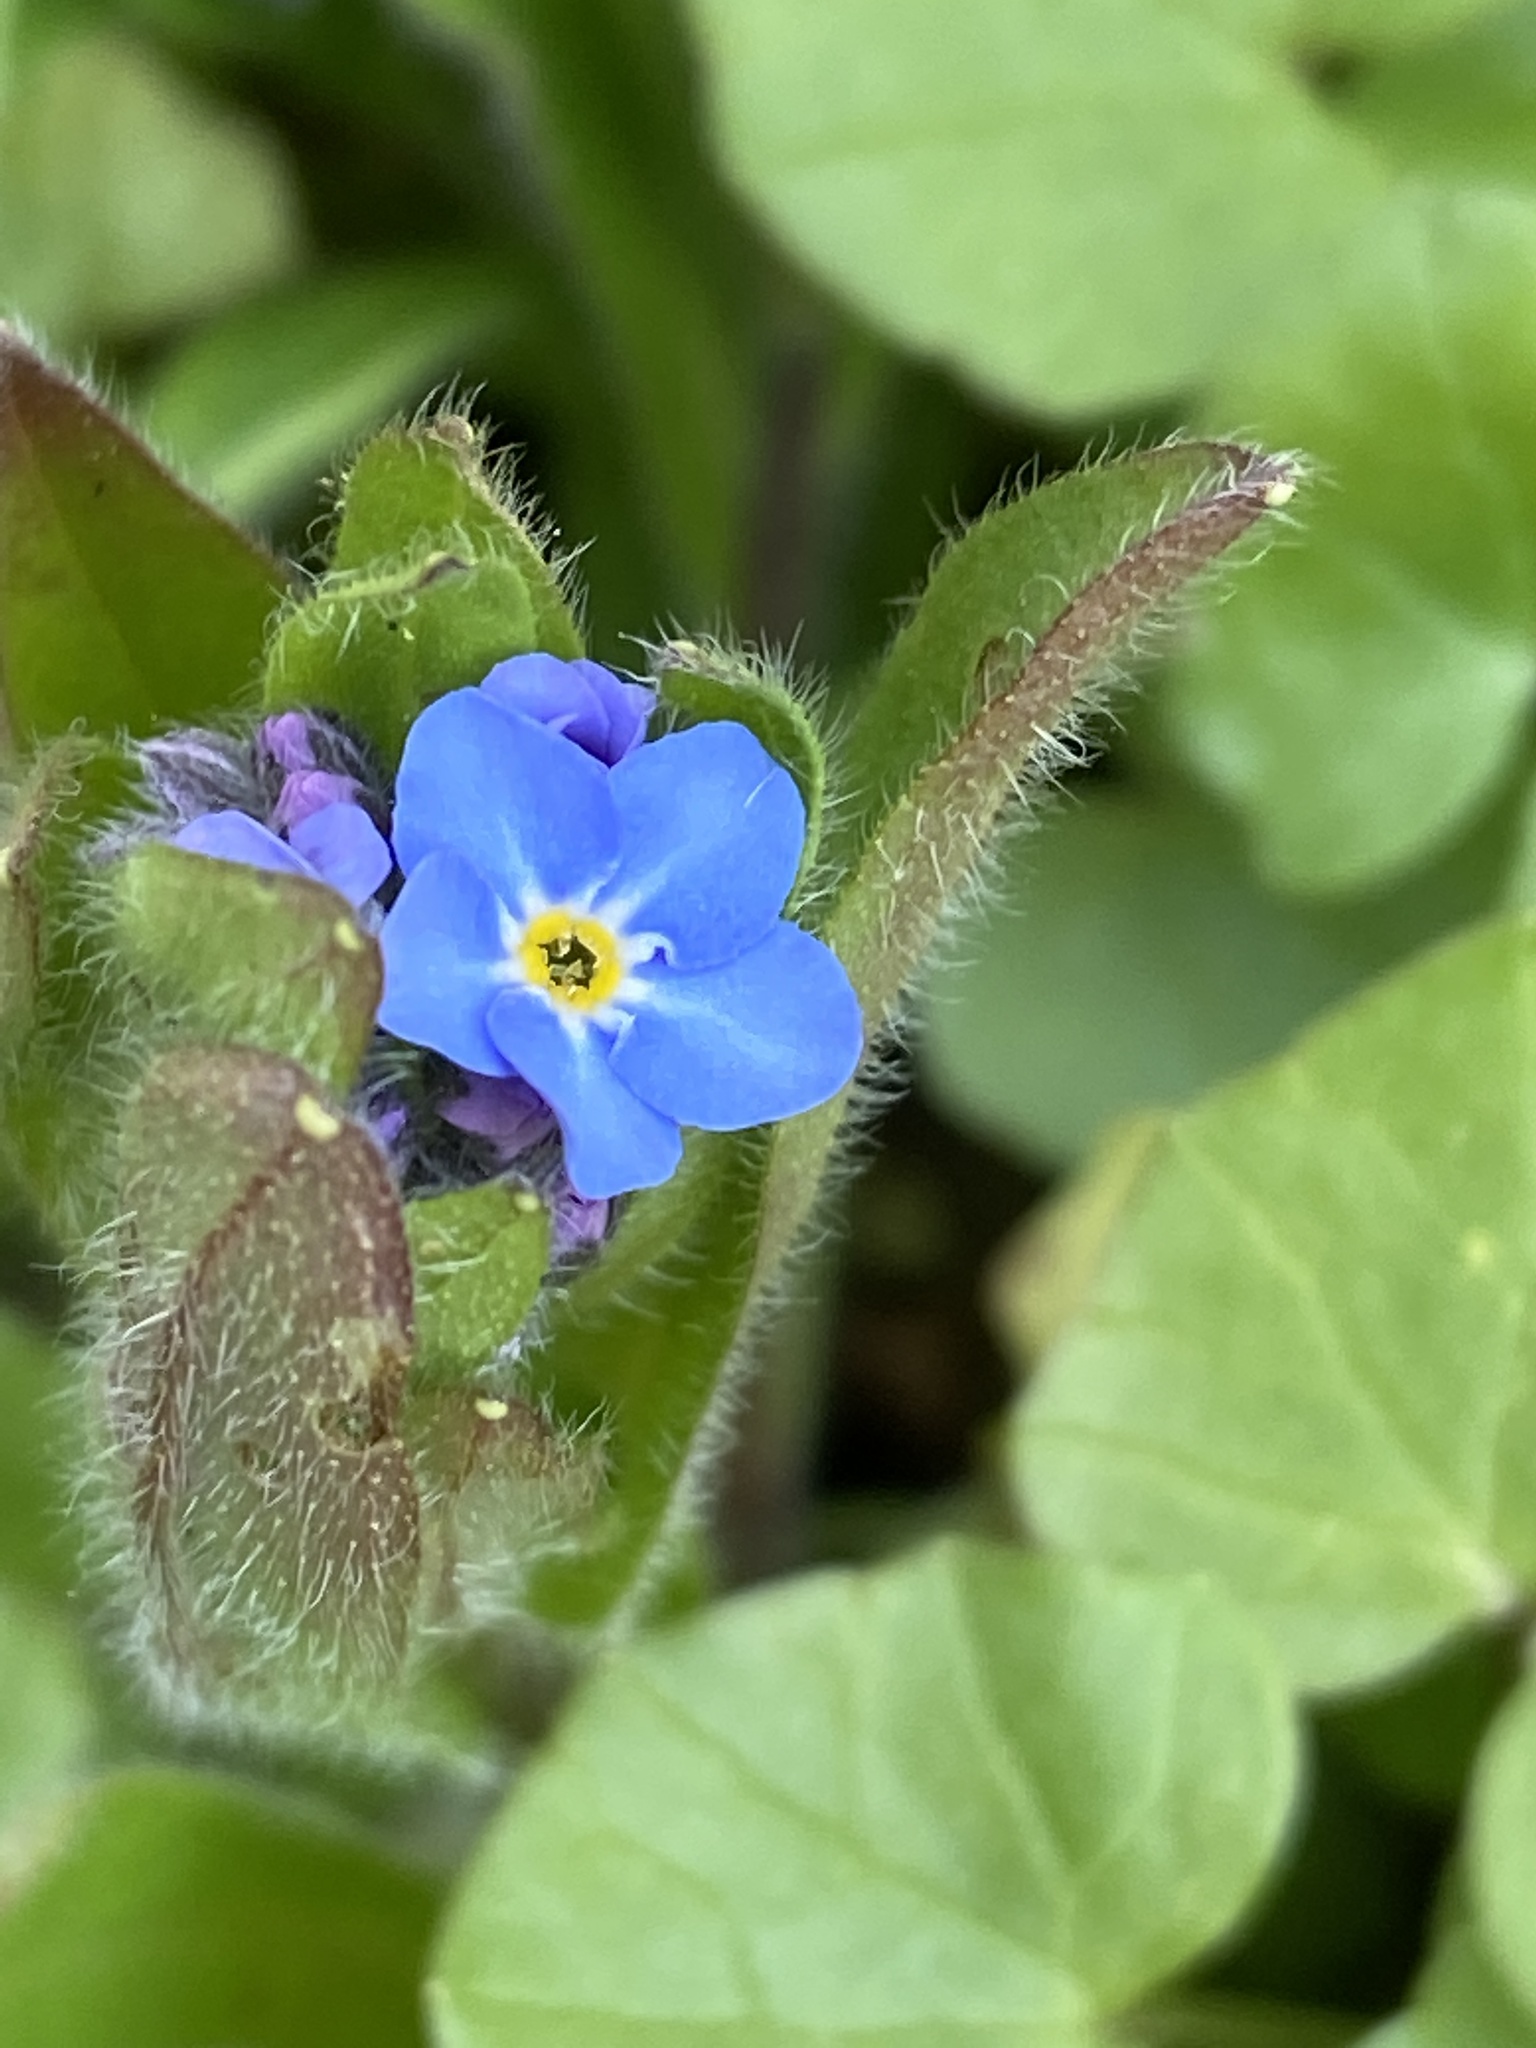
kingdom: Plantae
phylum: Tracheophyta
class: Magnoliopsida
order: Boraginales
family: Boraginaceae
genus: Myosotis
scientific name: Myosotis sylvatica
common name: Wood forget-me-not
